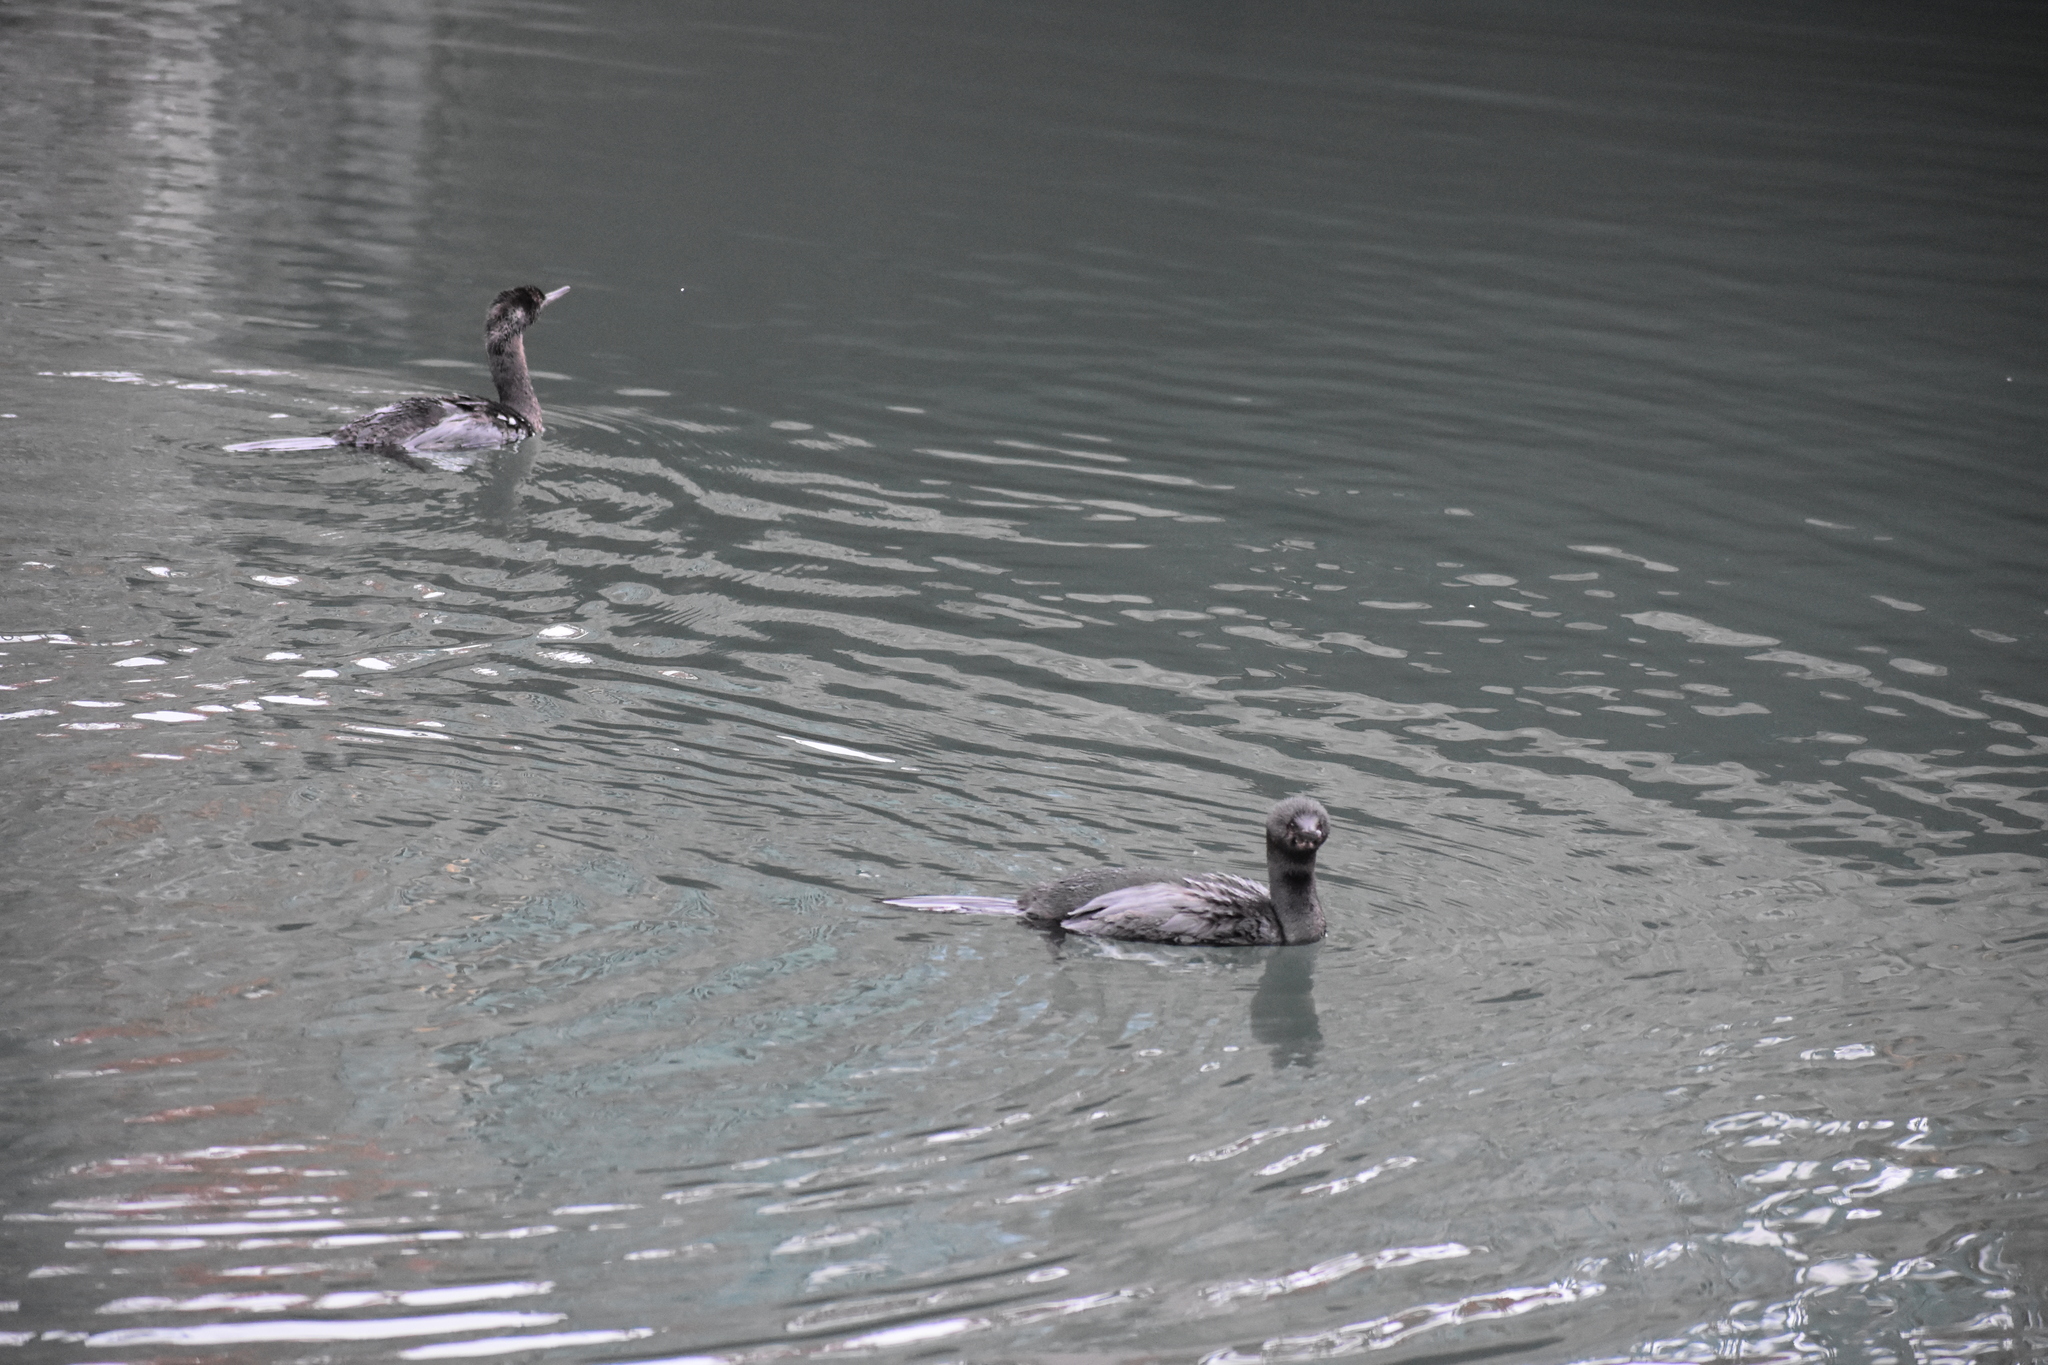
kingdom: Animalia
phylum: Chordata
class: Aves
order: Suliformes
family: Phalacrocoracidae
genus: Phalacrocorax
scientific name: Phalacrocorax pelagicus
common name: Pelagic cormorant
